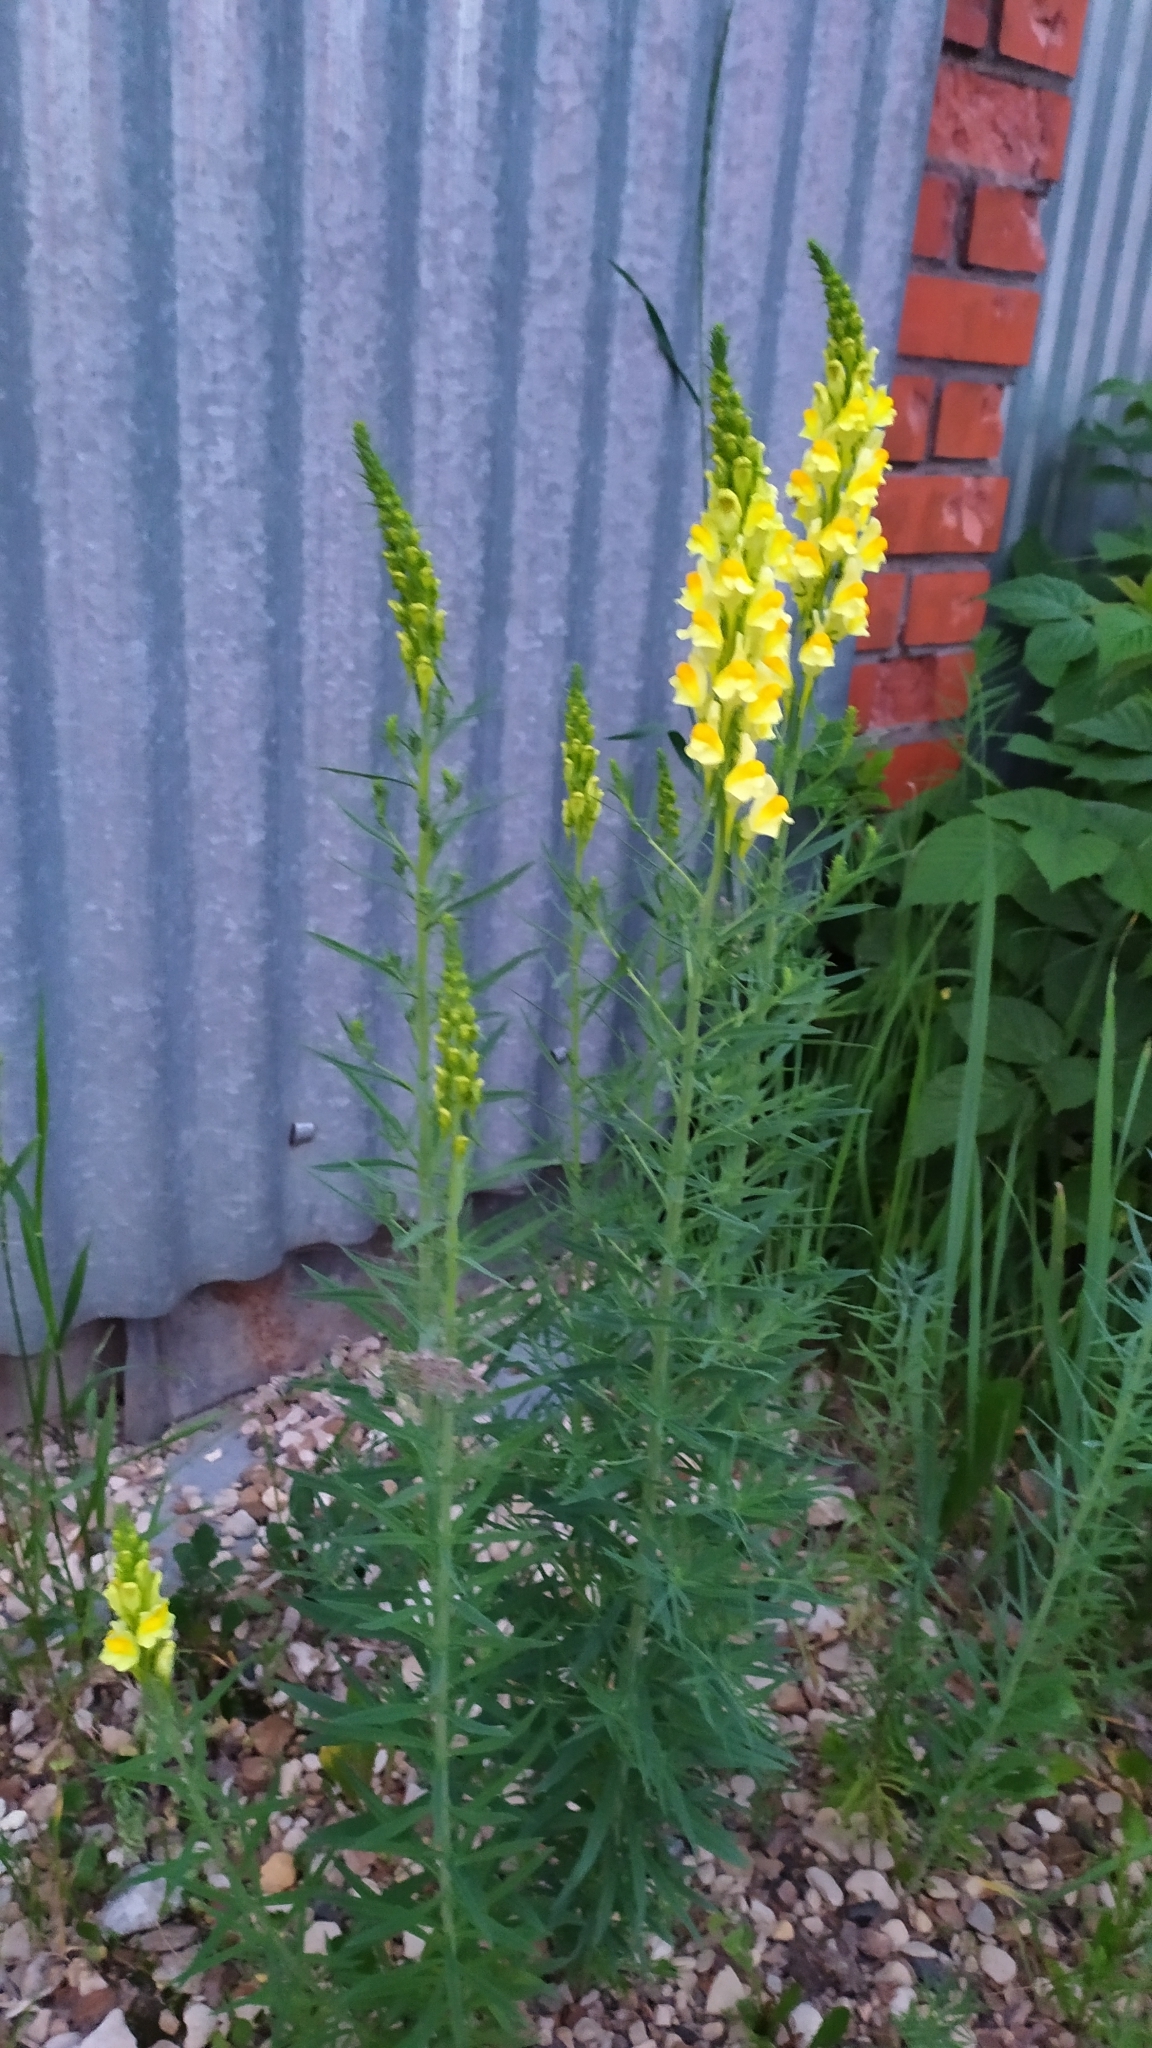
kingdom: Plantae
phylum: Tracheophyta
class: Magnoliopsida
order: Lamiales
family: Plantaginaceae
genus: Linaria
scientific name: Linaria vulgaris
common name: Butter and eggs
